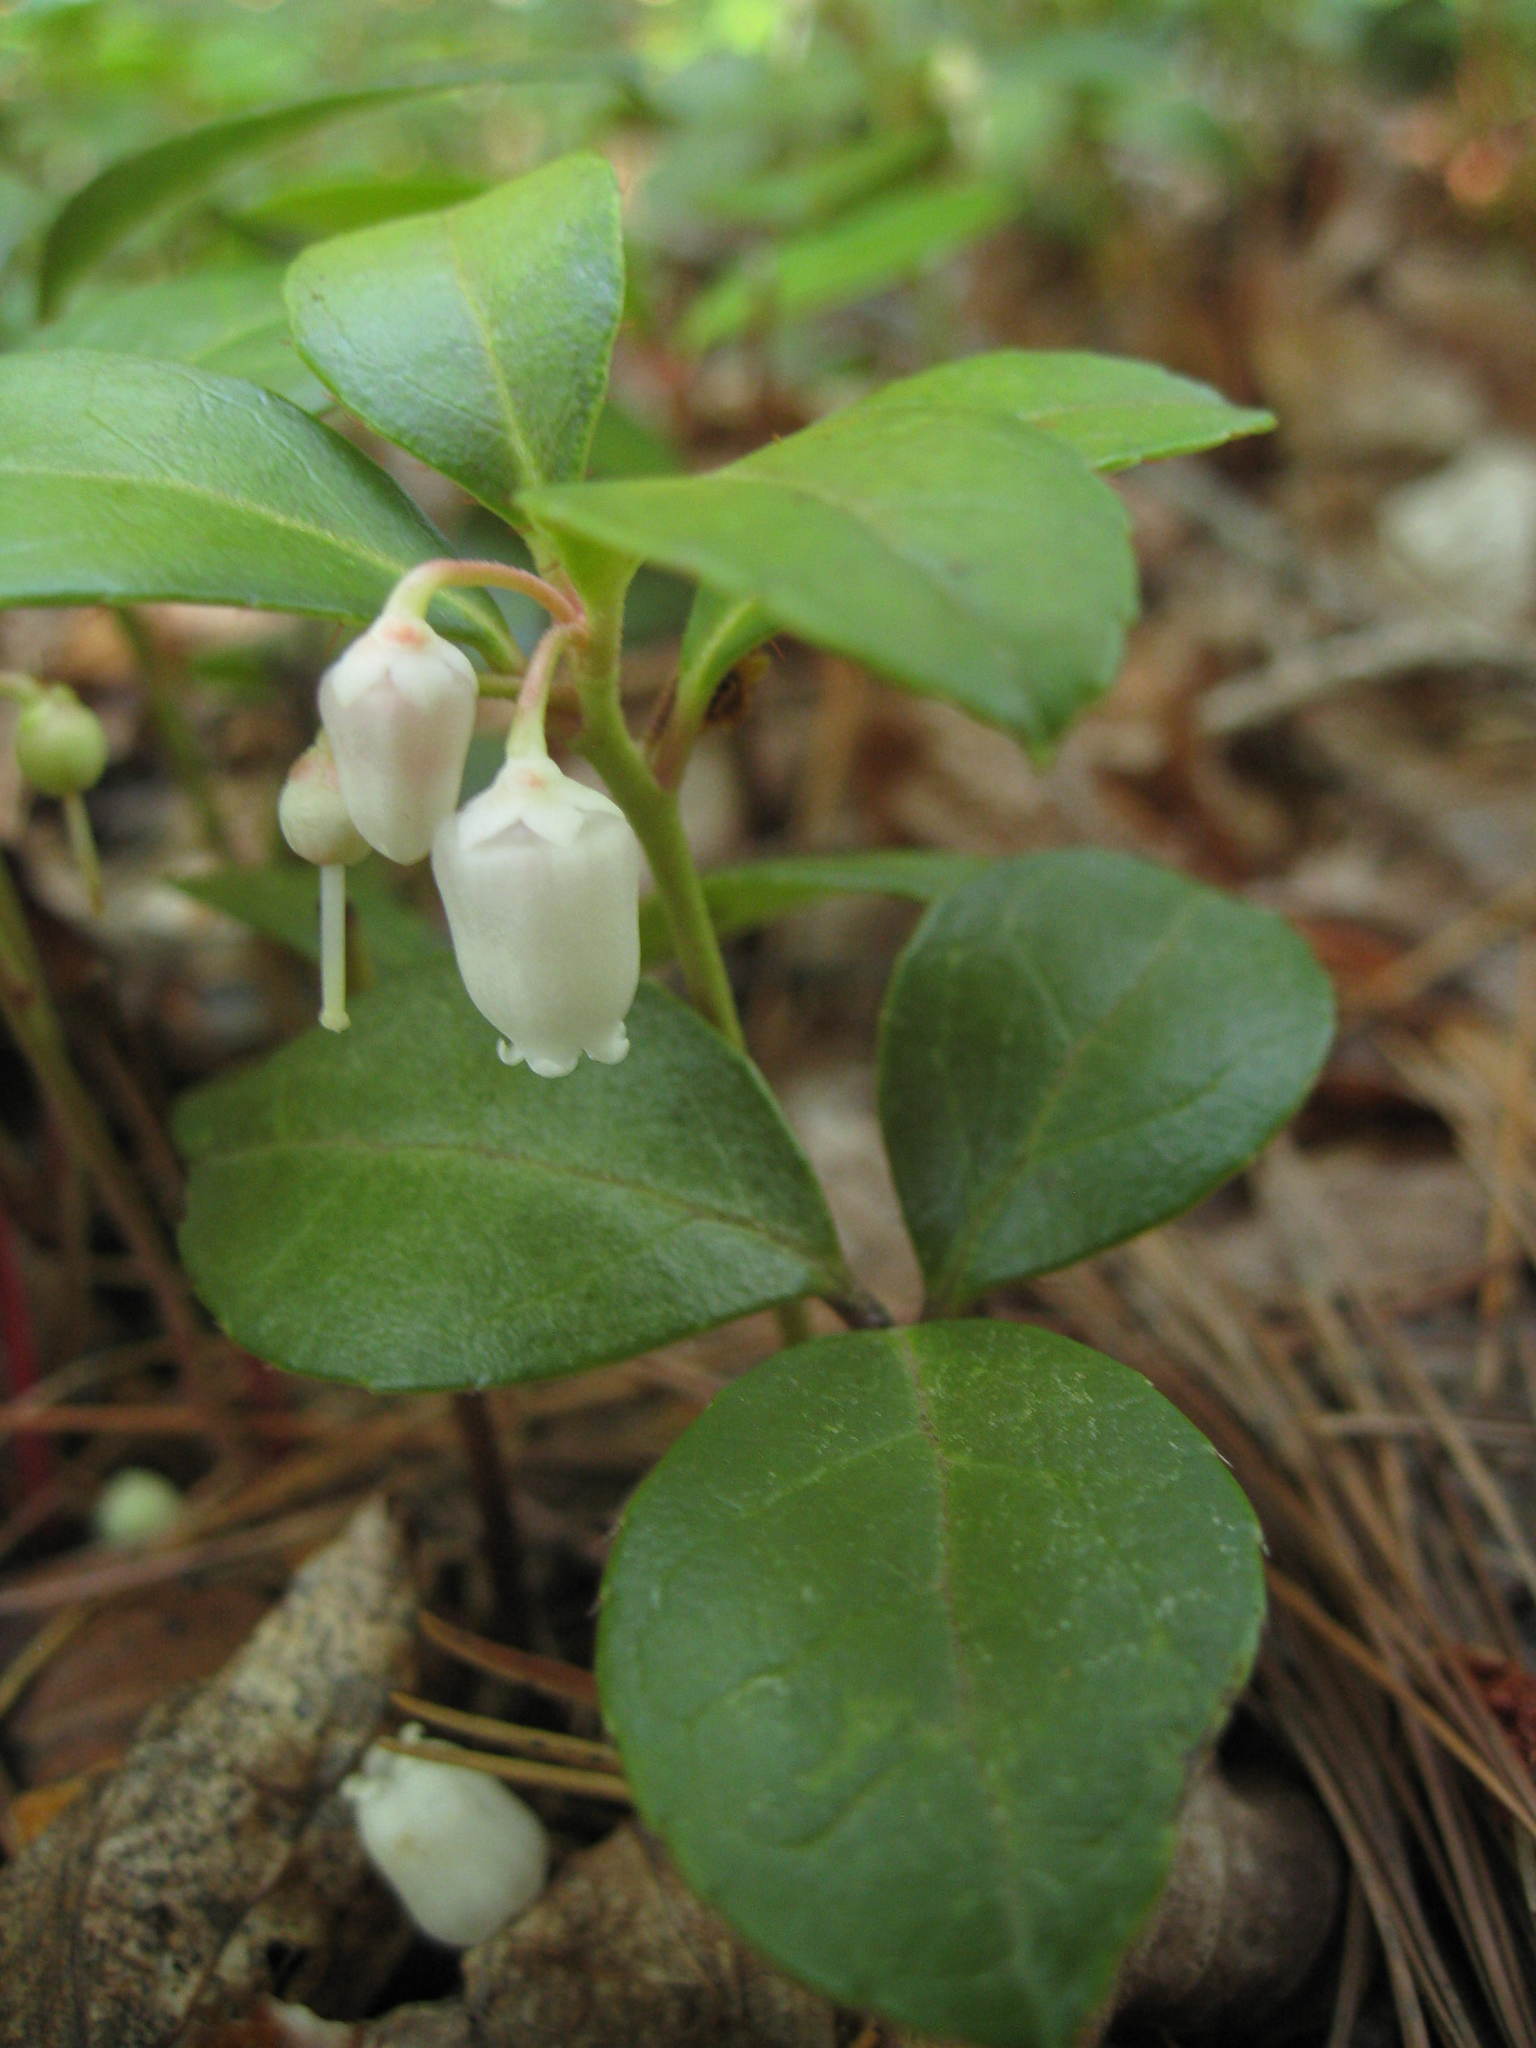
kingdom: Plantae
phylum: Tracheophyta
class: Magnoliopsida
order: Ericales
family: Ericaceae
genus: Gaultheria
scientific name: Gaultheria procumbens
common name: Checkerberry
